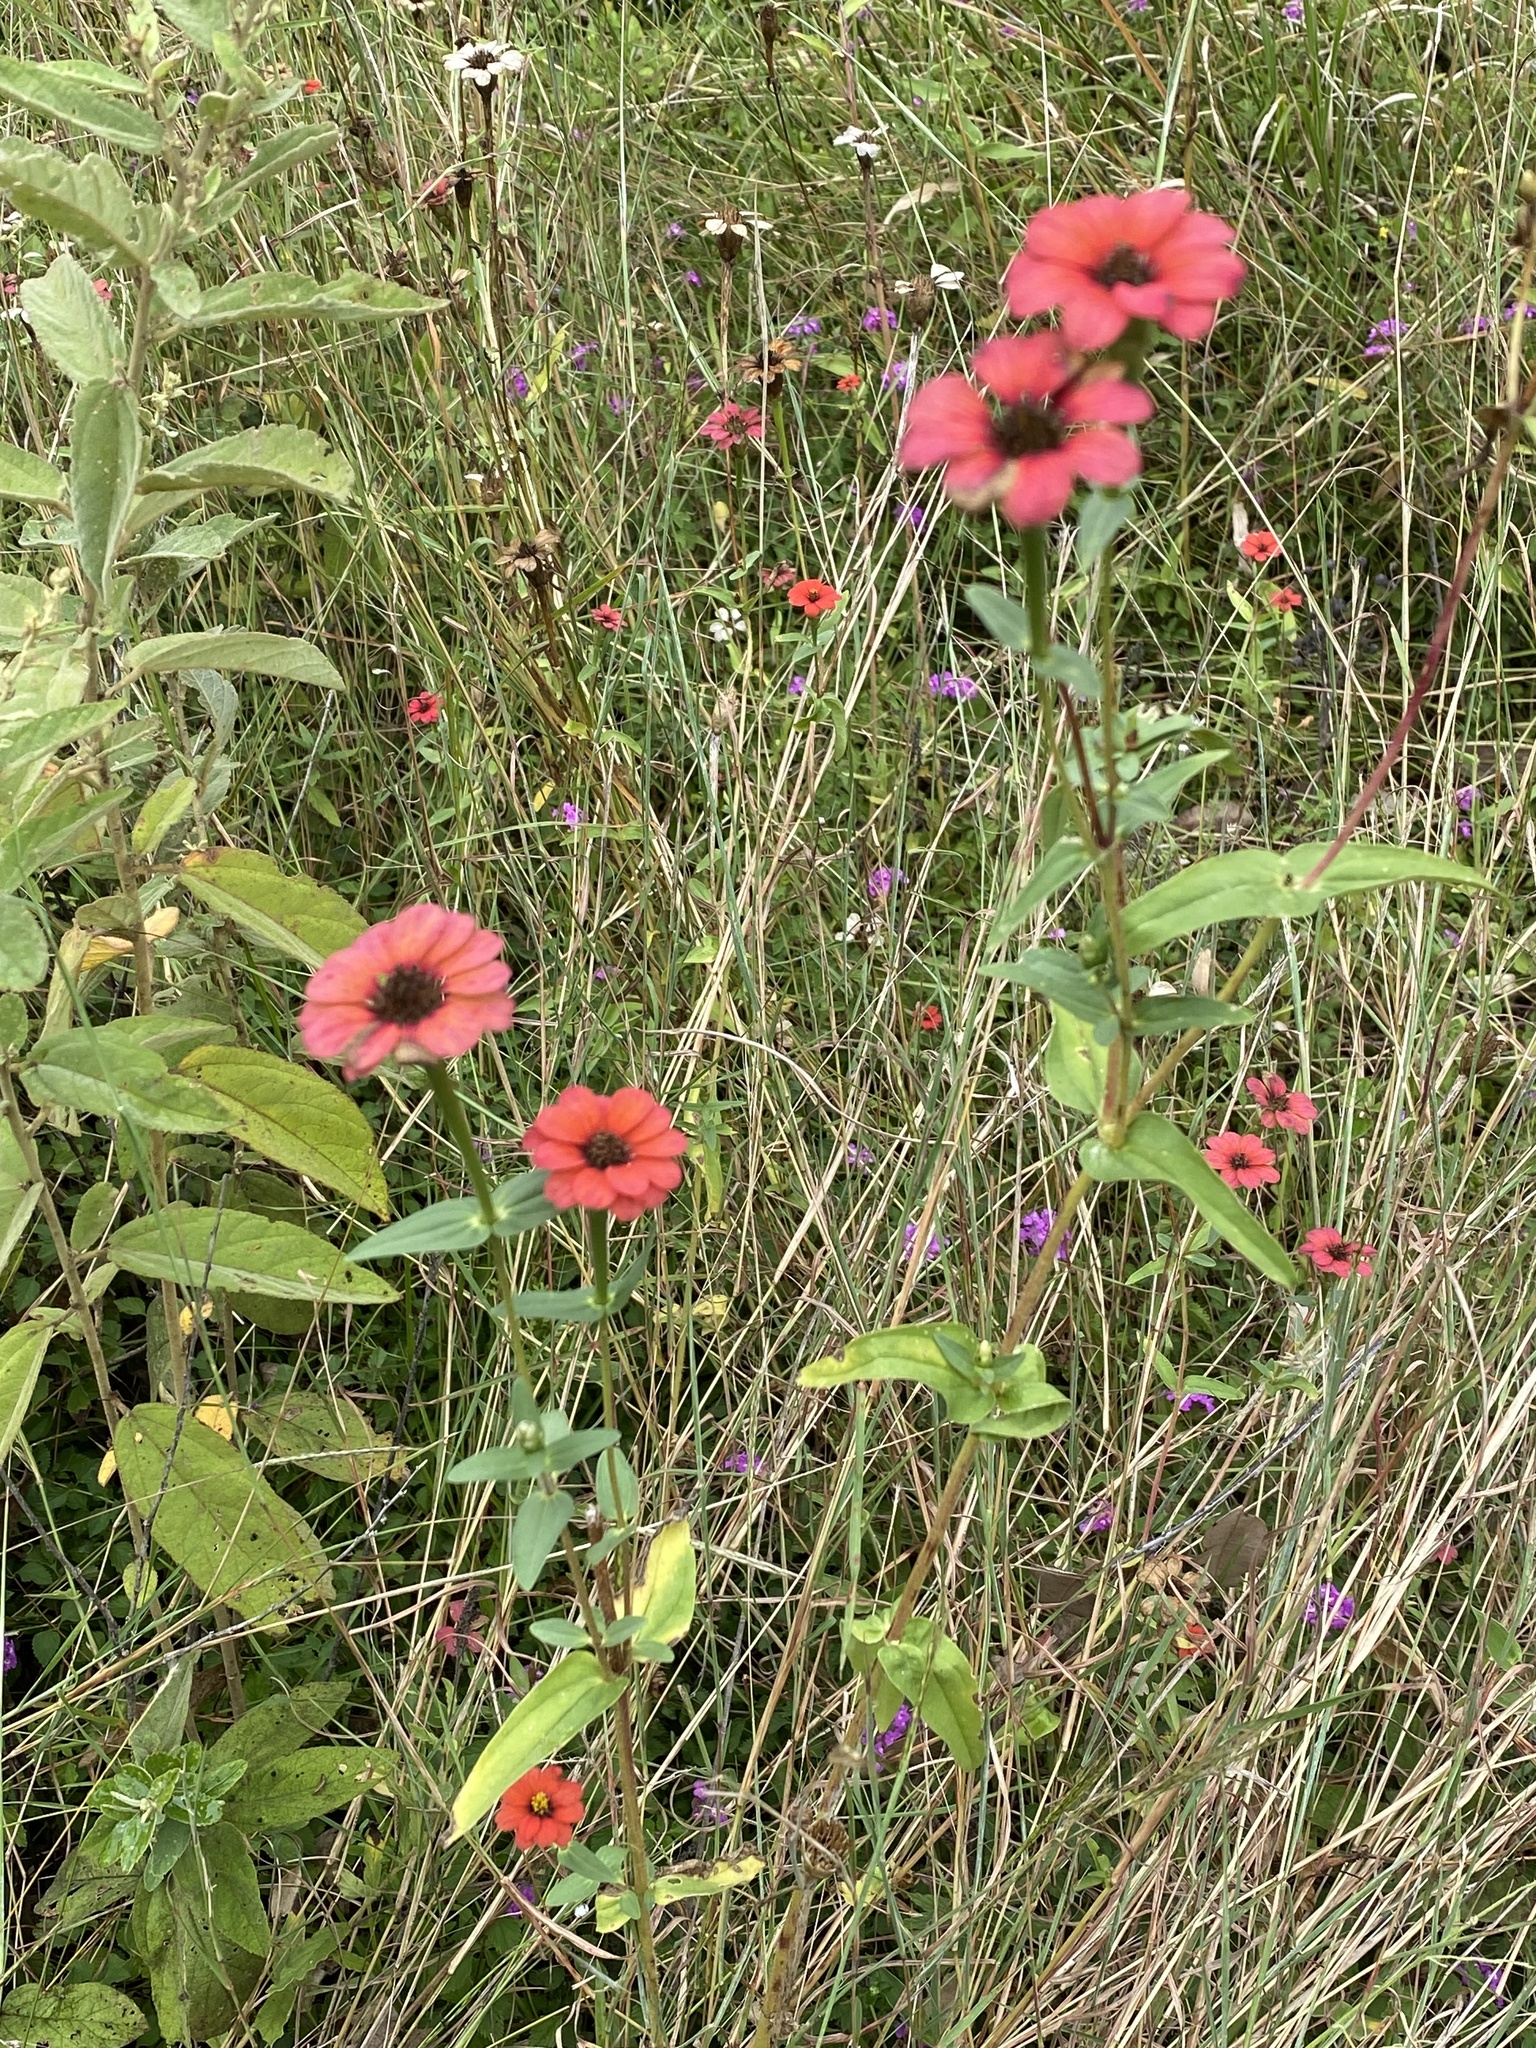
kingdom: Plantae
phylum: Tracheophyta
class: Magnoliopsida
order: Asterales
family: Asteraceae
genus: Zinnia
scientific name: Zinnia peruviana
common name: Peruvian zinnia
